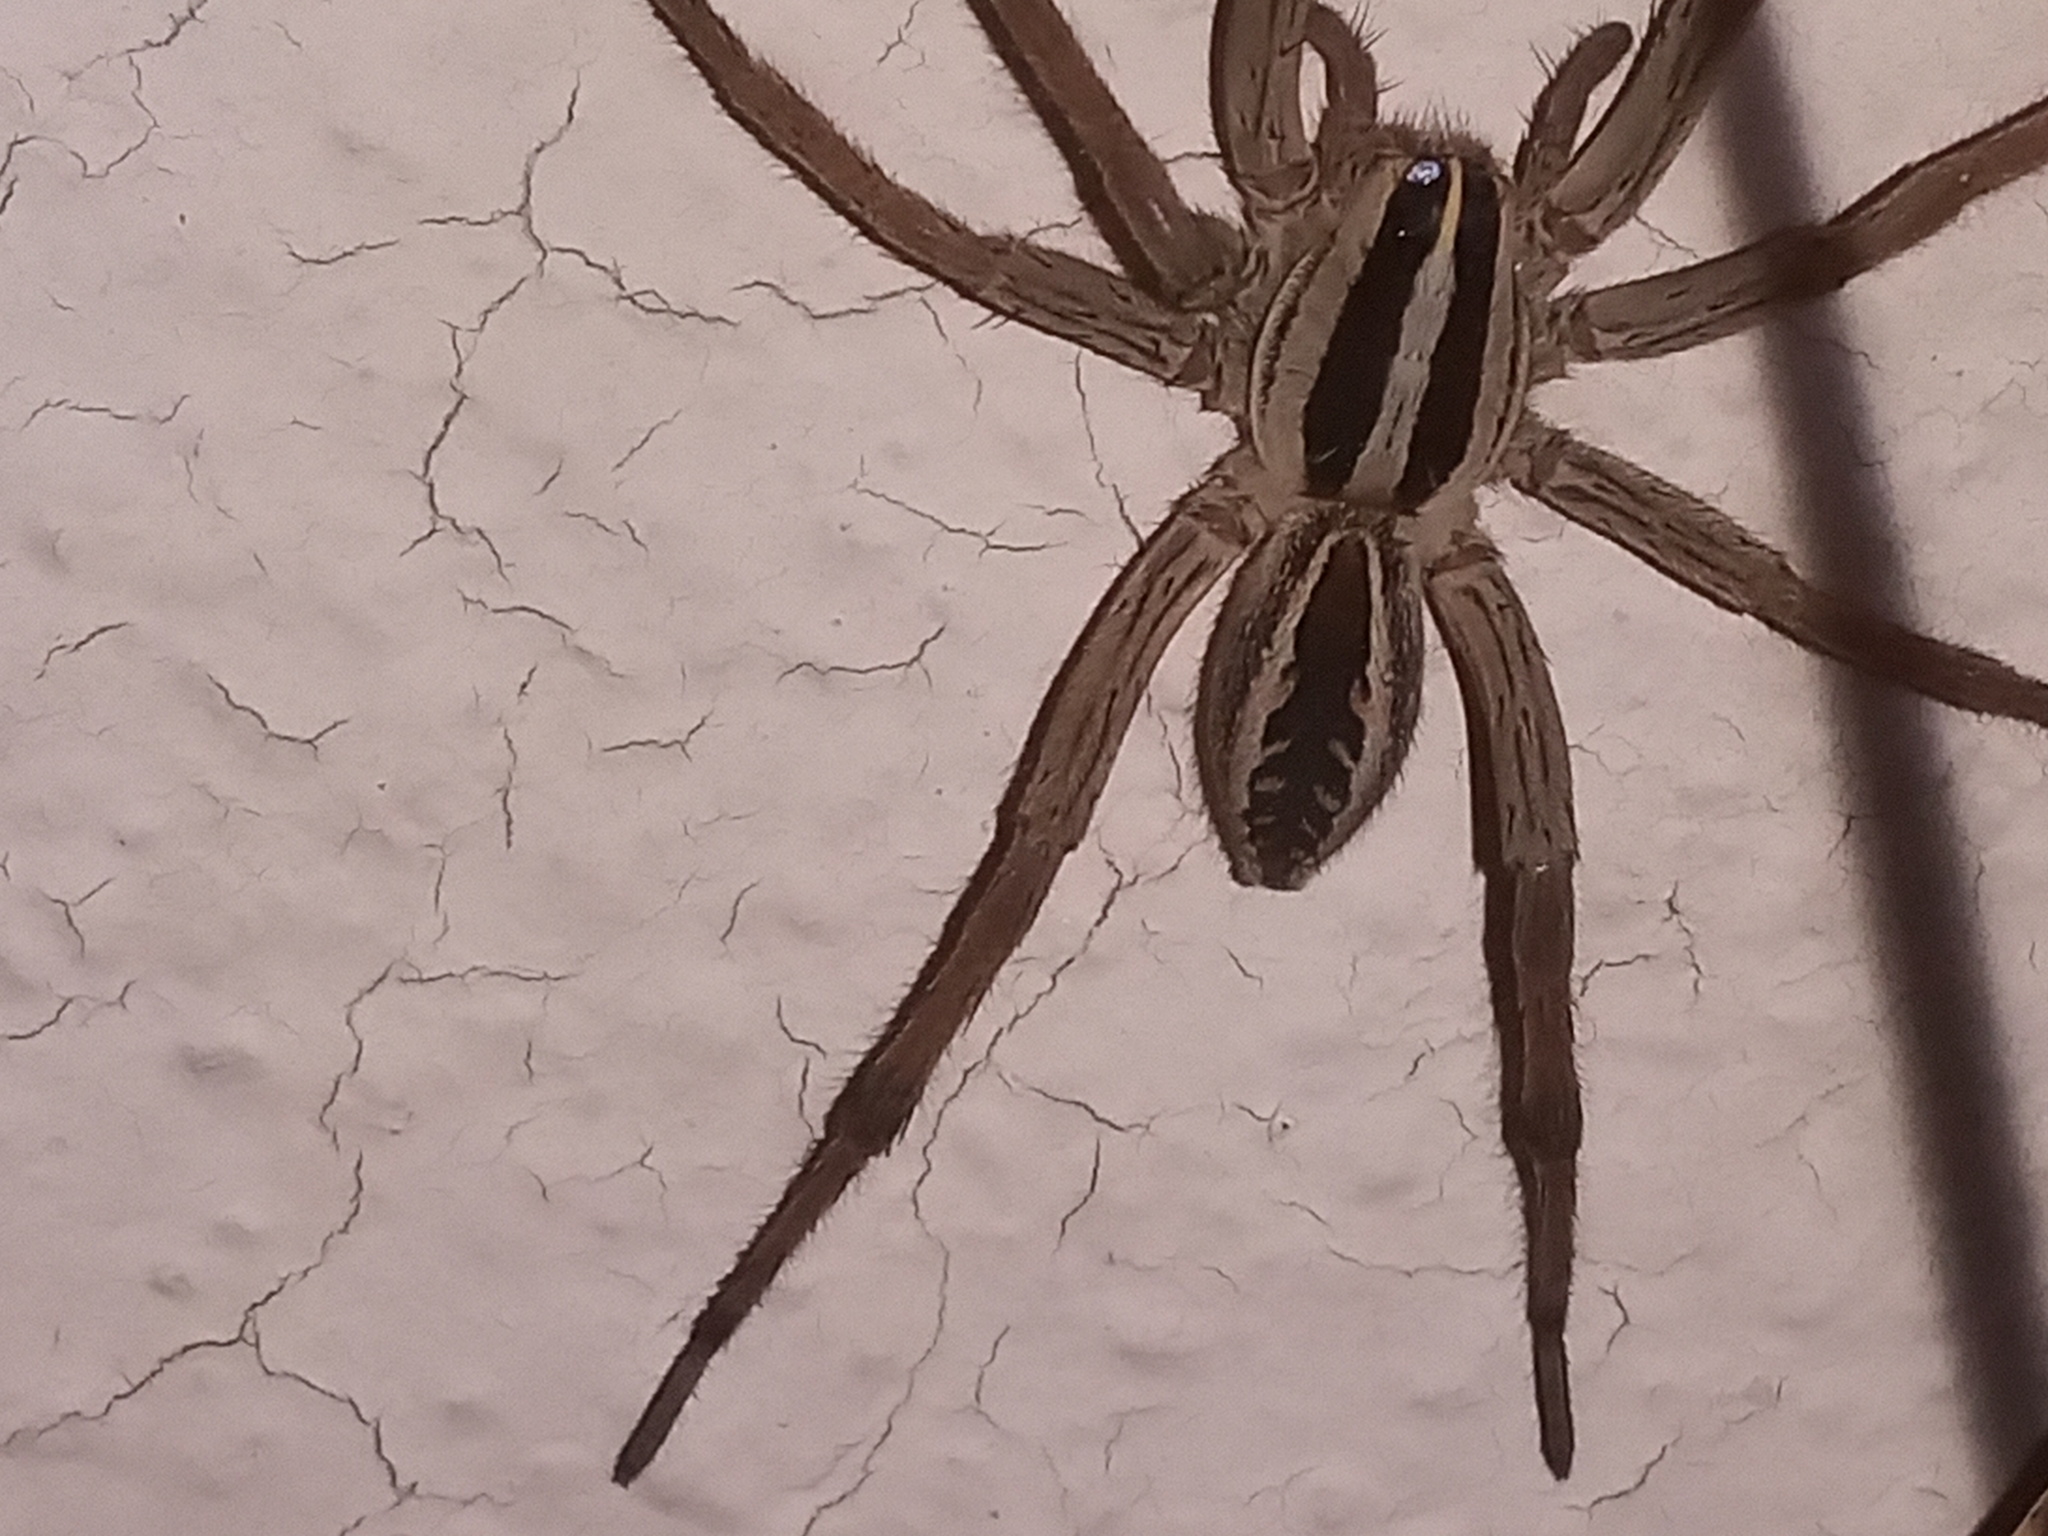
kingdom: Animalia
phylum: Arthropoda
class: Arachnida
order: Araneae
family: Lycosidae
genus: Rabidosa
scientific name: Rabidosa rabida
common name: Rabid wolf spider
